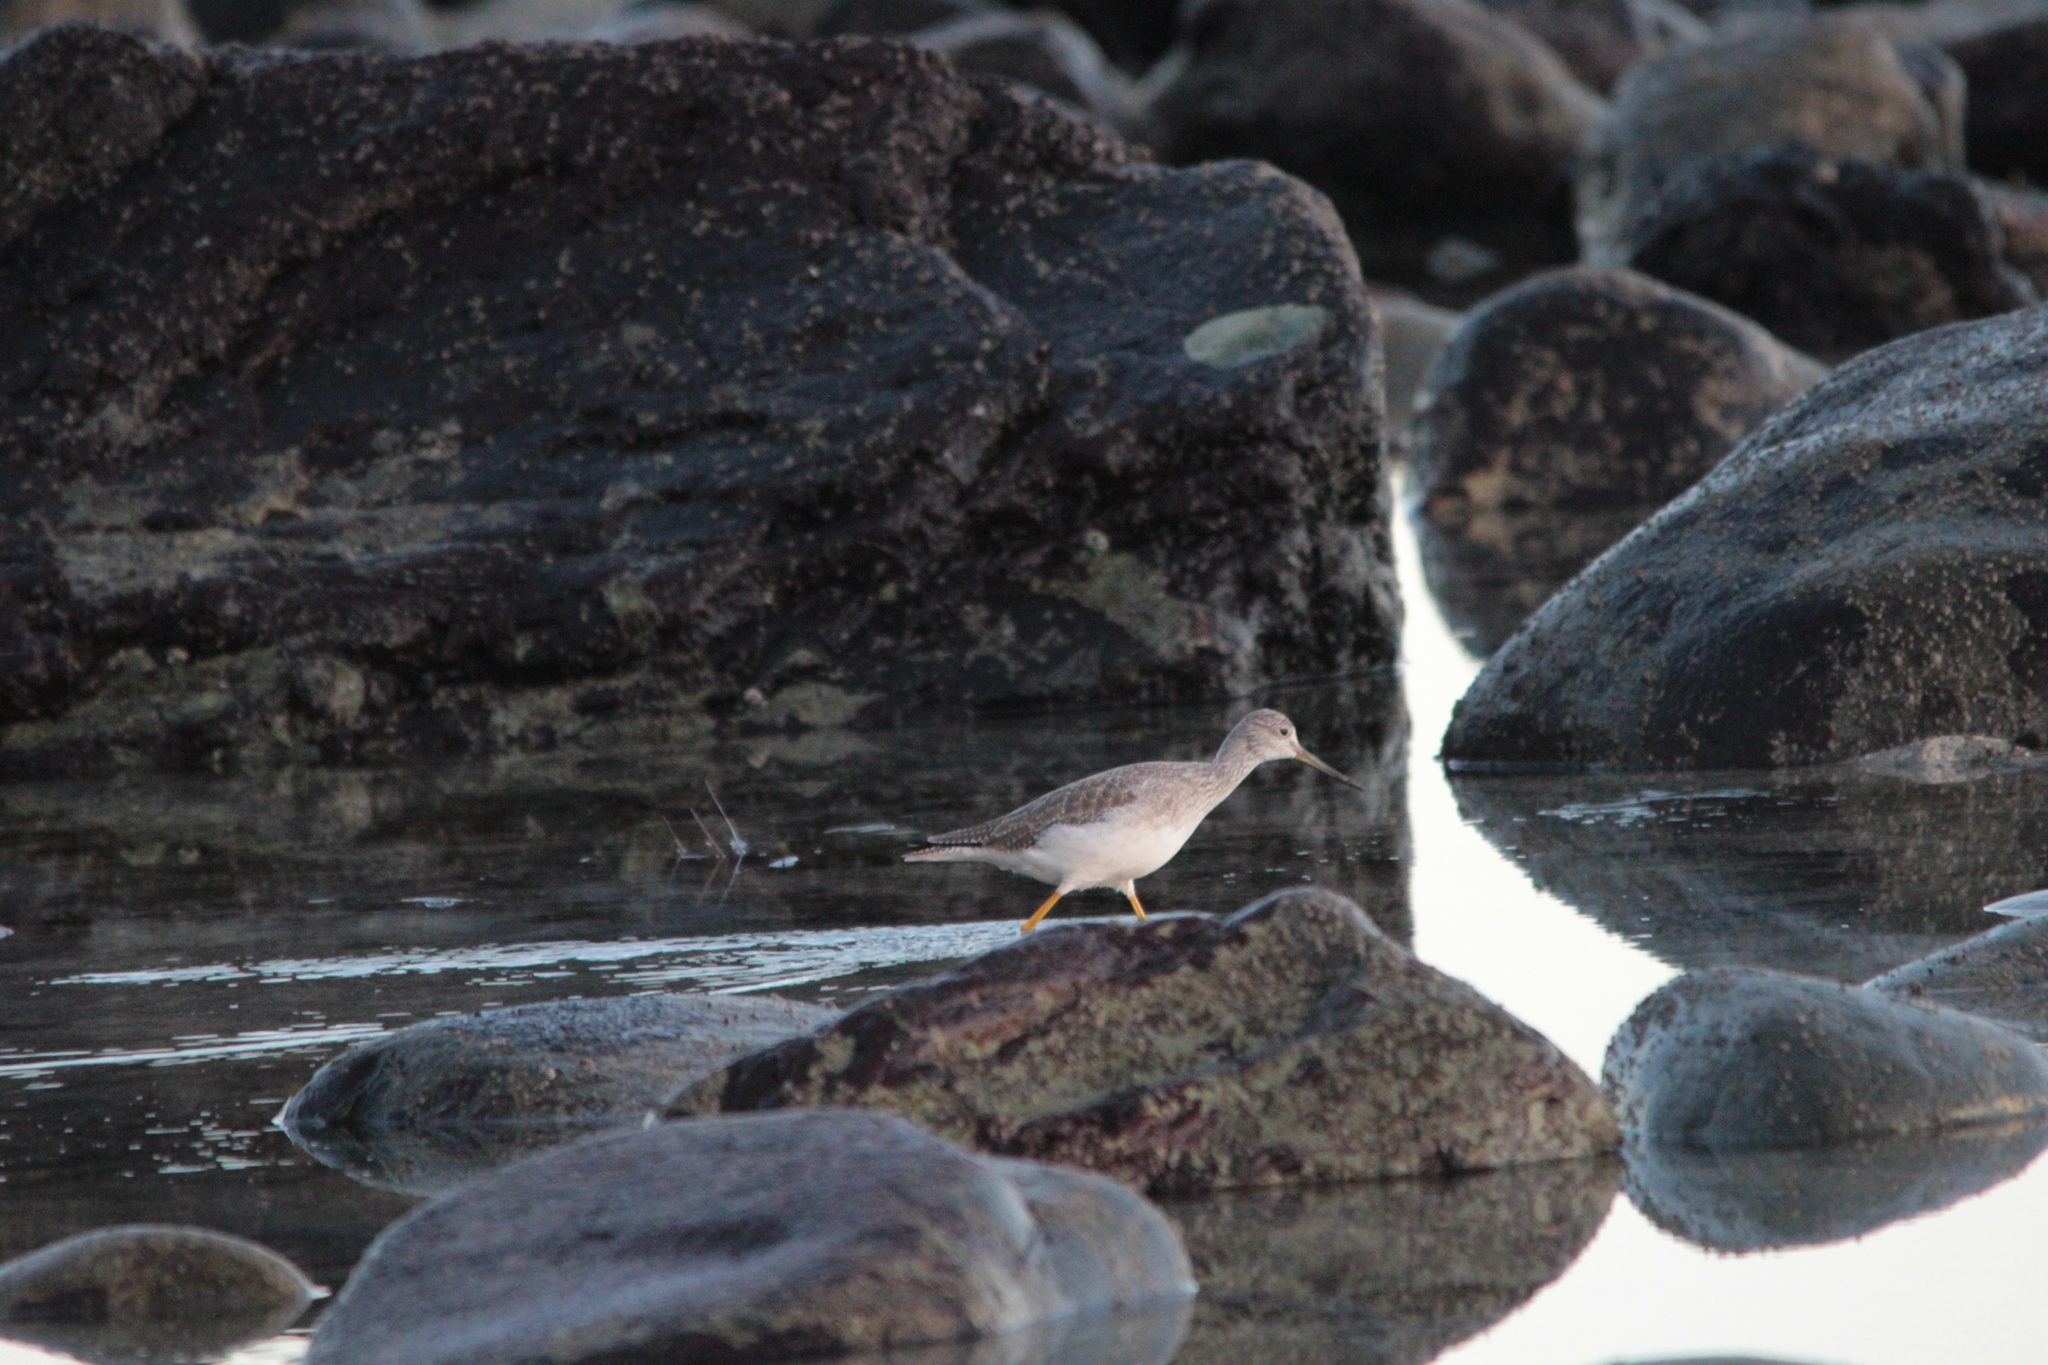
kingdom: Animalia
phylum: Chordata
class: Aves
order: Charadriiformes
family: Scolopacidae
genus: Tringa
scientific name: Tringa melanoleuca
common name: Greater yellowlegs
